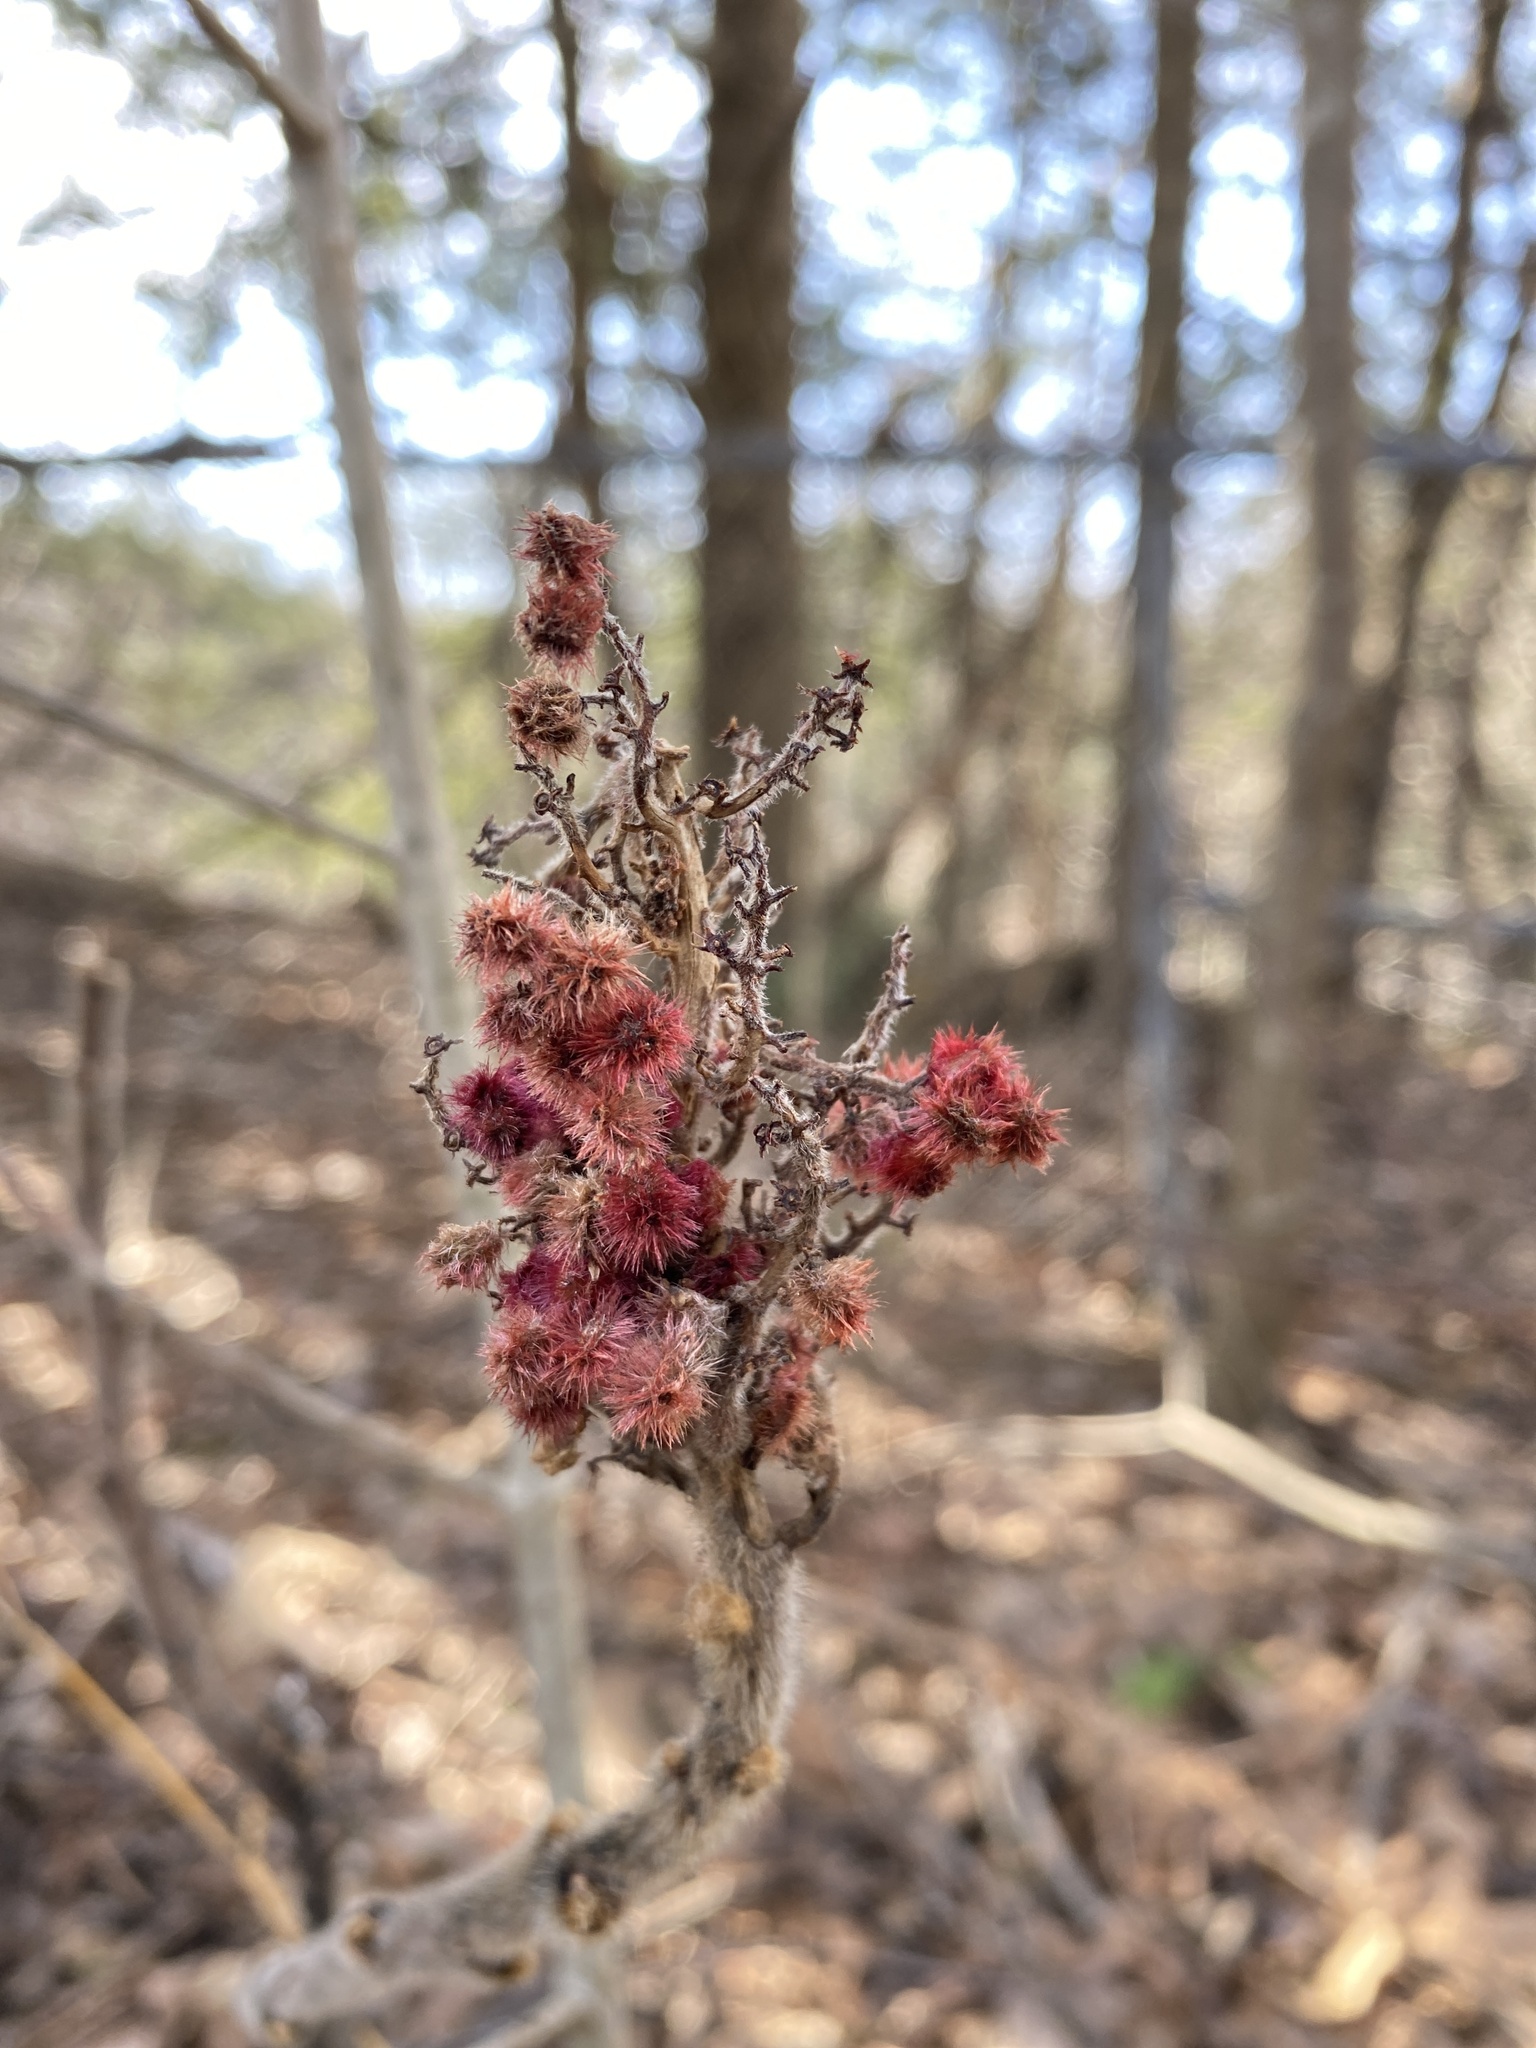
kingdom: Plantae
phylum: Tracheophyta
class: Magnoliopsida
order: Sapindales
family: Anacardiaceae
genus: Rhus
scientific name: Rhus typhina
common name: Staghorn sumac
